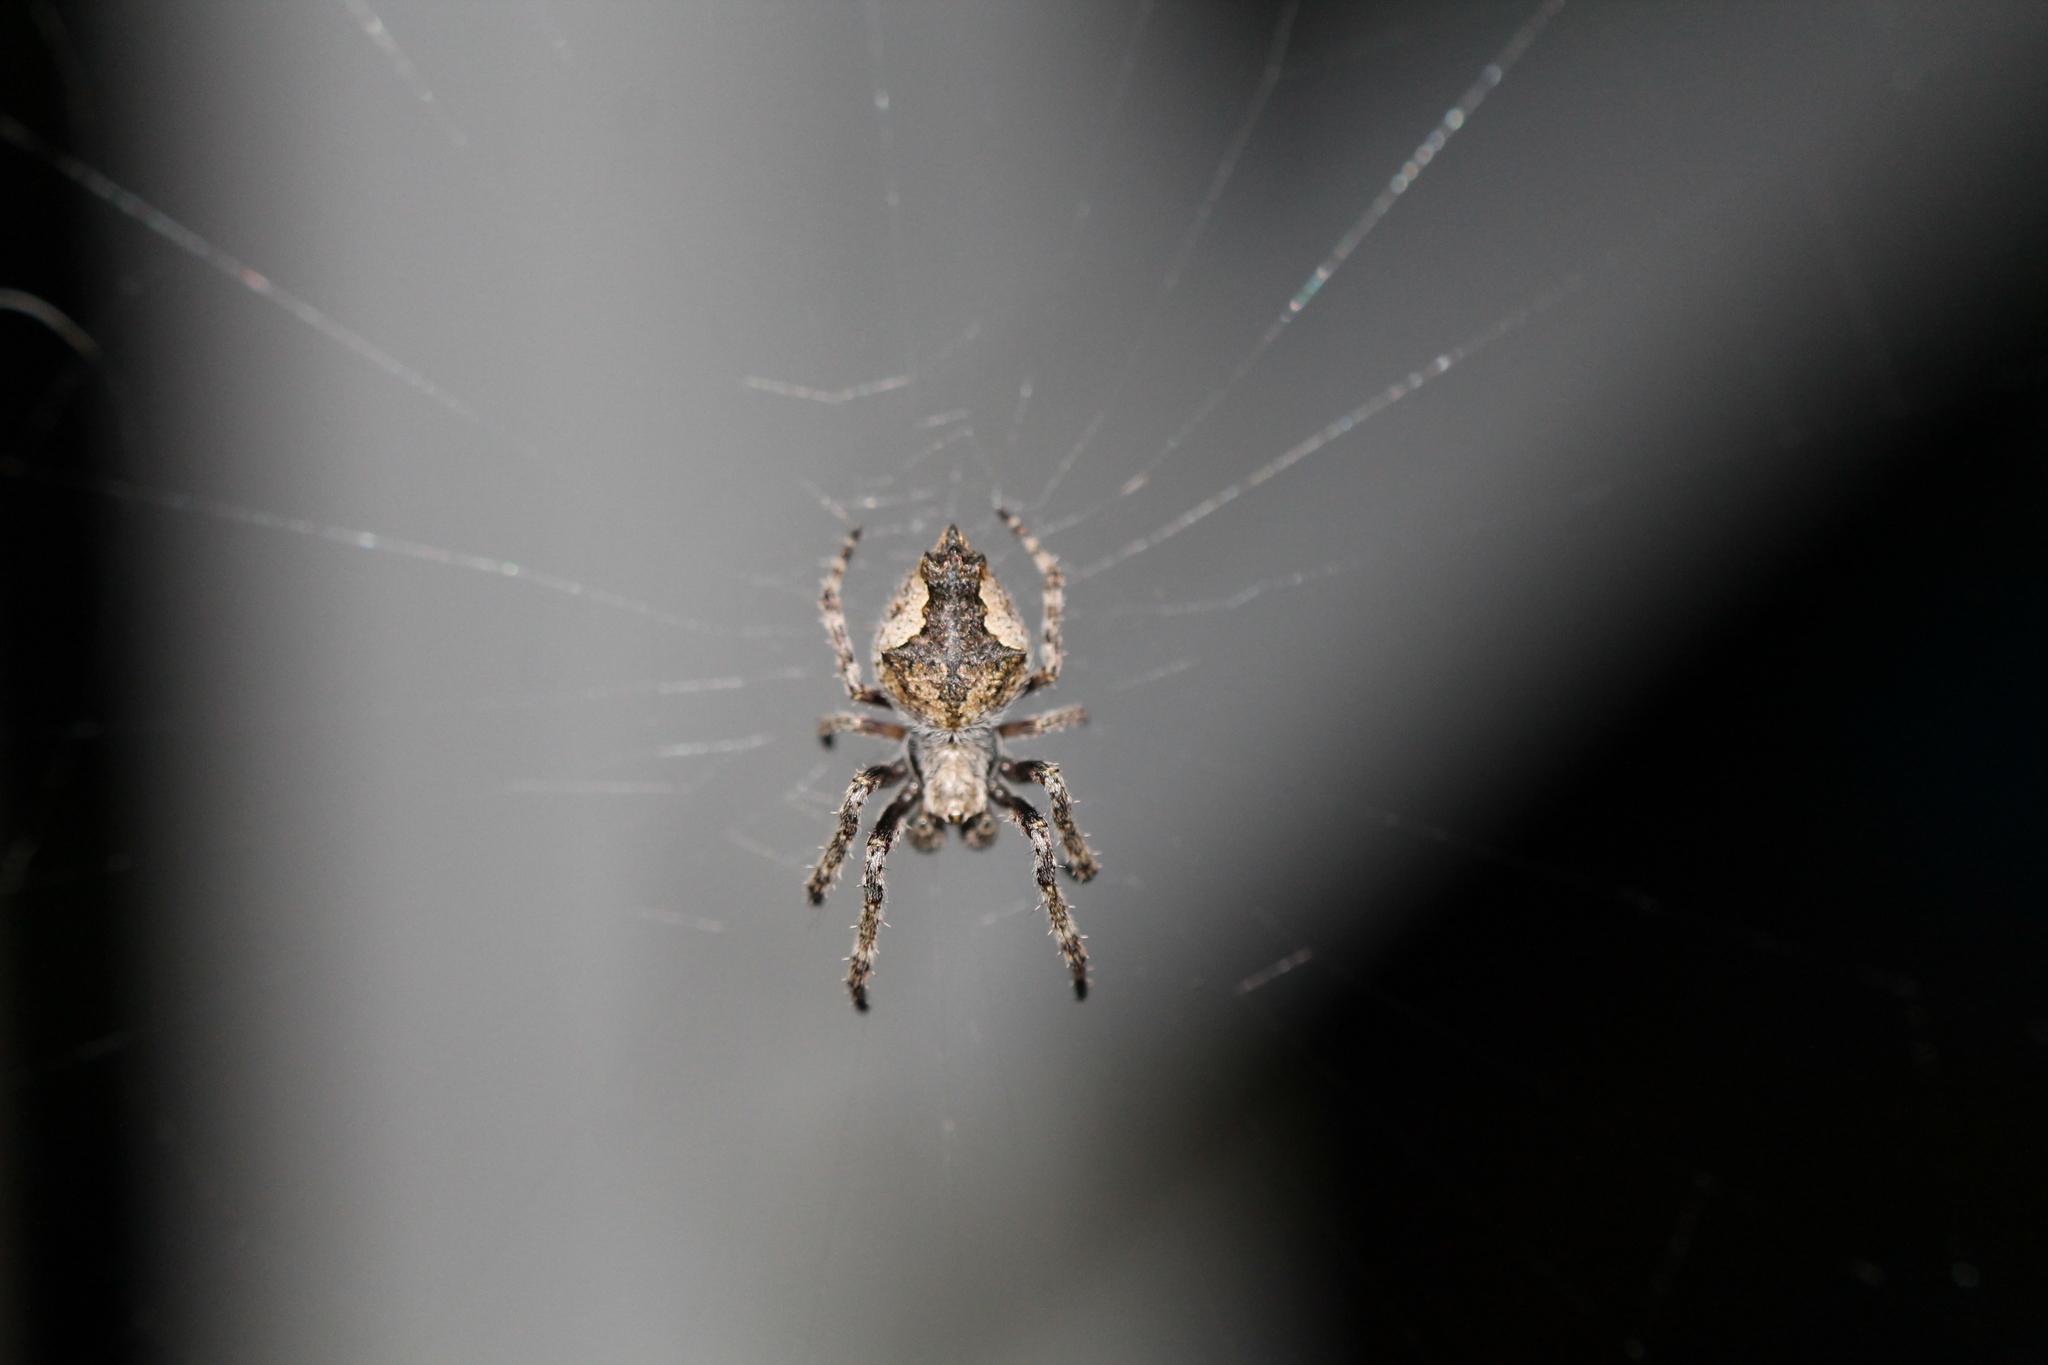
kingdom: Animalia
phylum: Arthropoda
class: Arachnida
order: Araneae
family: Araneidae
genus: Eriophora
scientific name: Eriophora pustulosa
